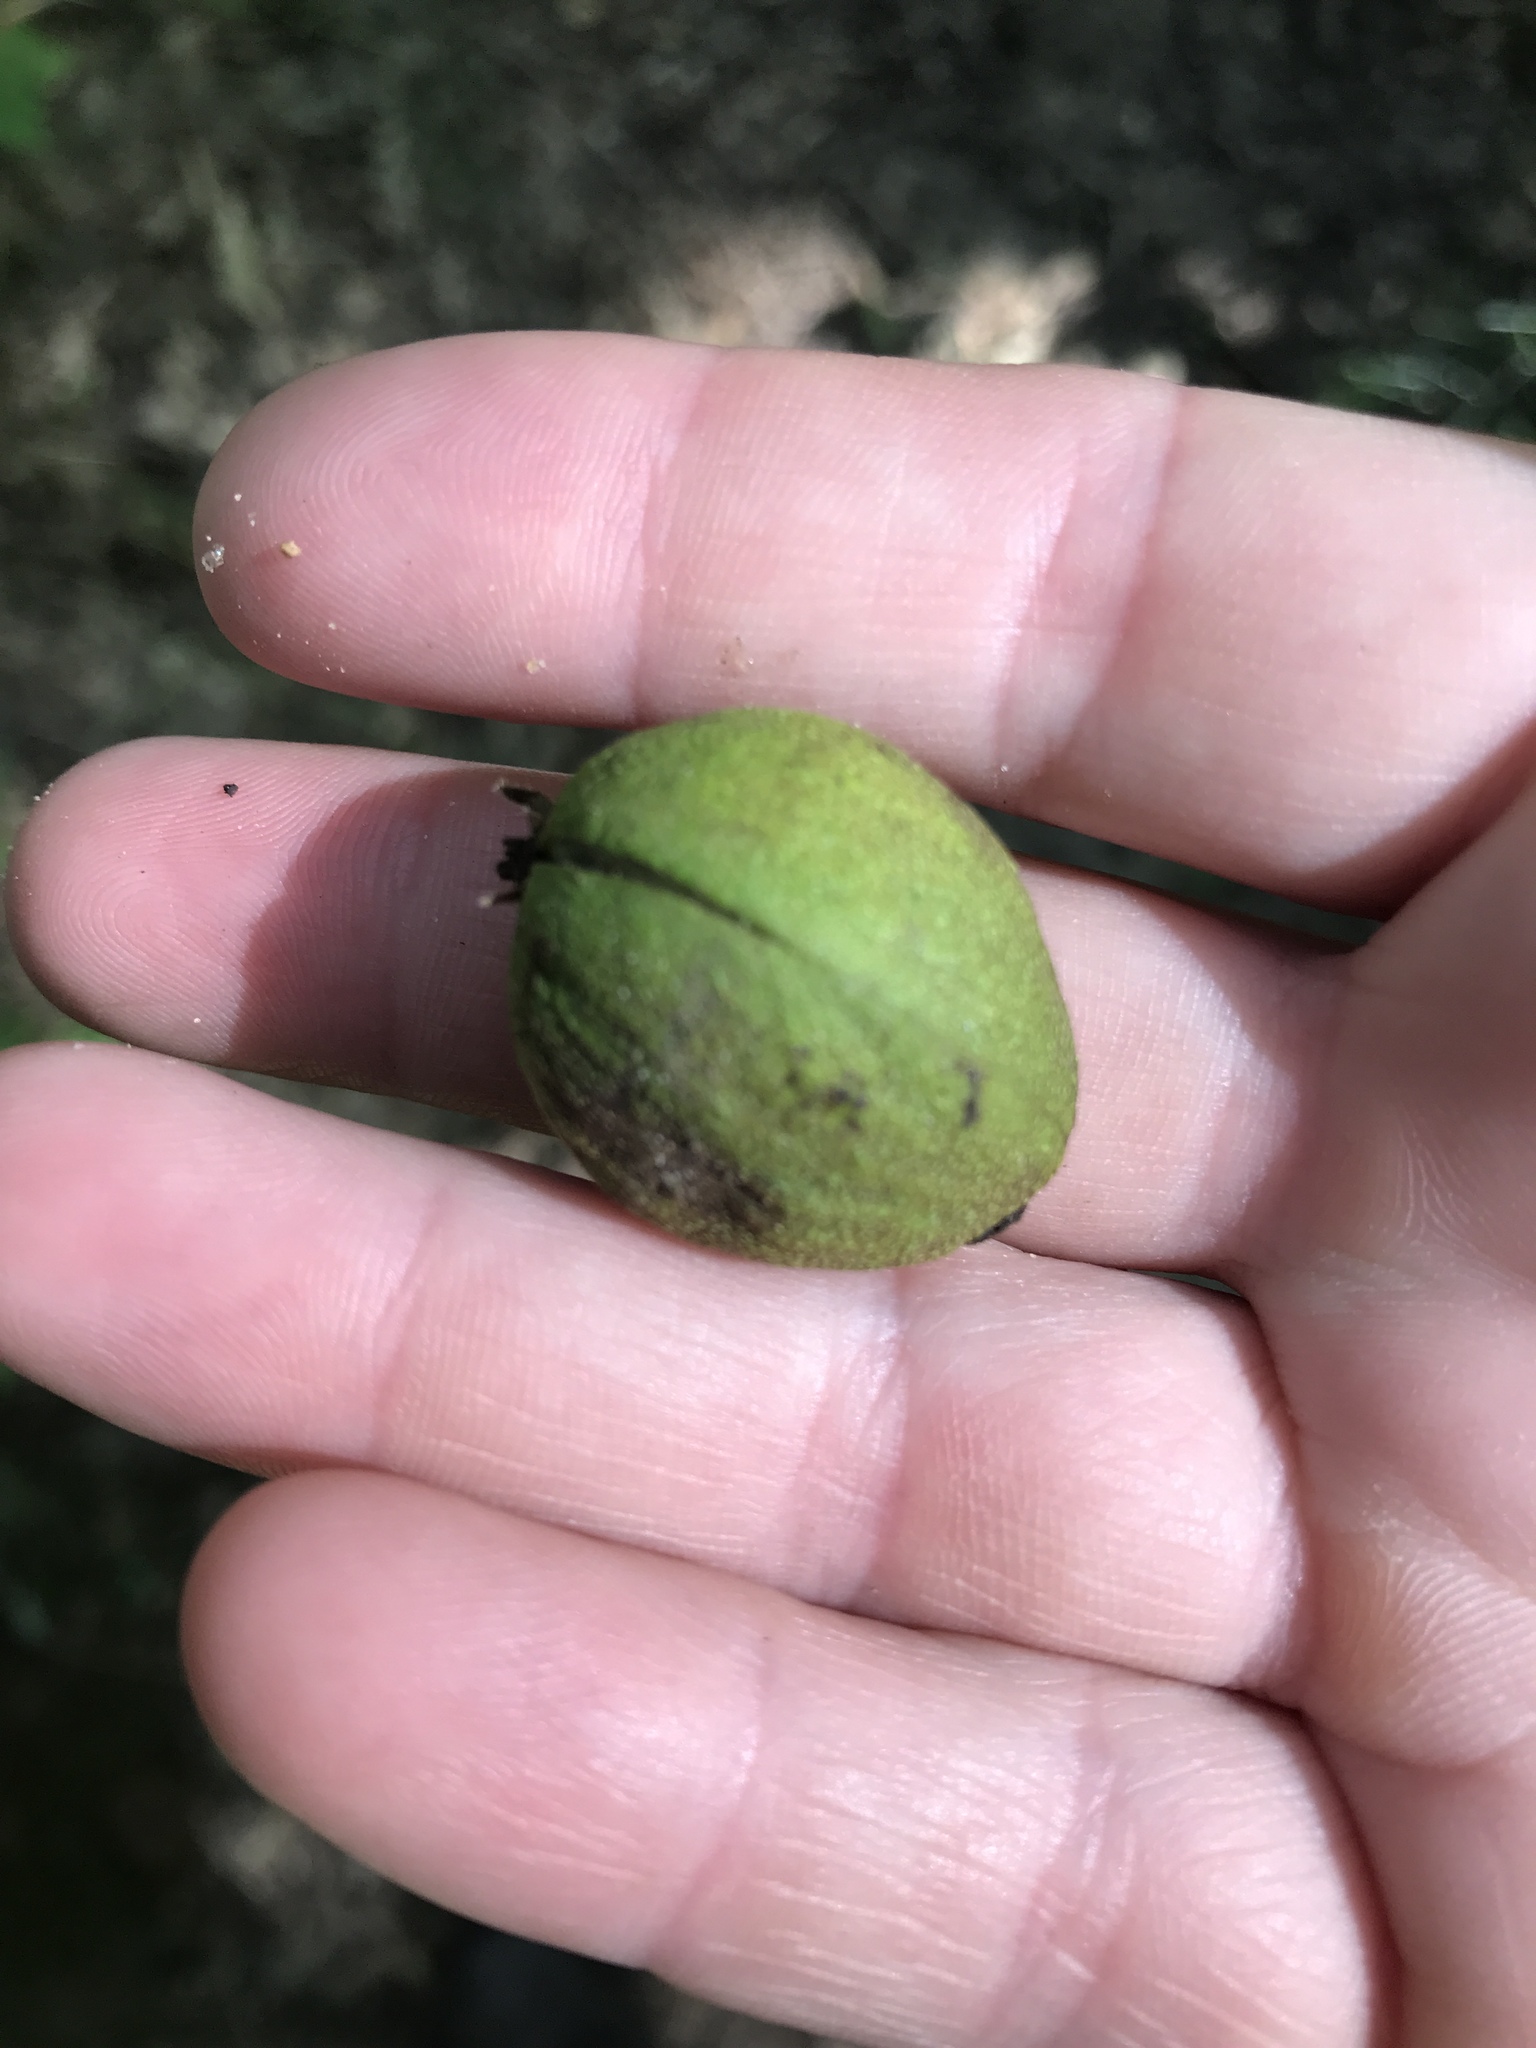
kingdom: Plantae
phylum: Tracheophyta
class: Magnoliopsida
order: Fagales
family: Juglandaceae
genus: Carya
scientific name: Carya cordiformis
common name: Bitternut hickory
